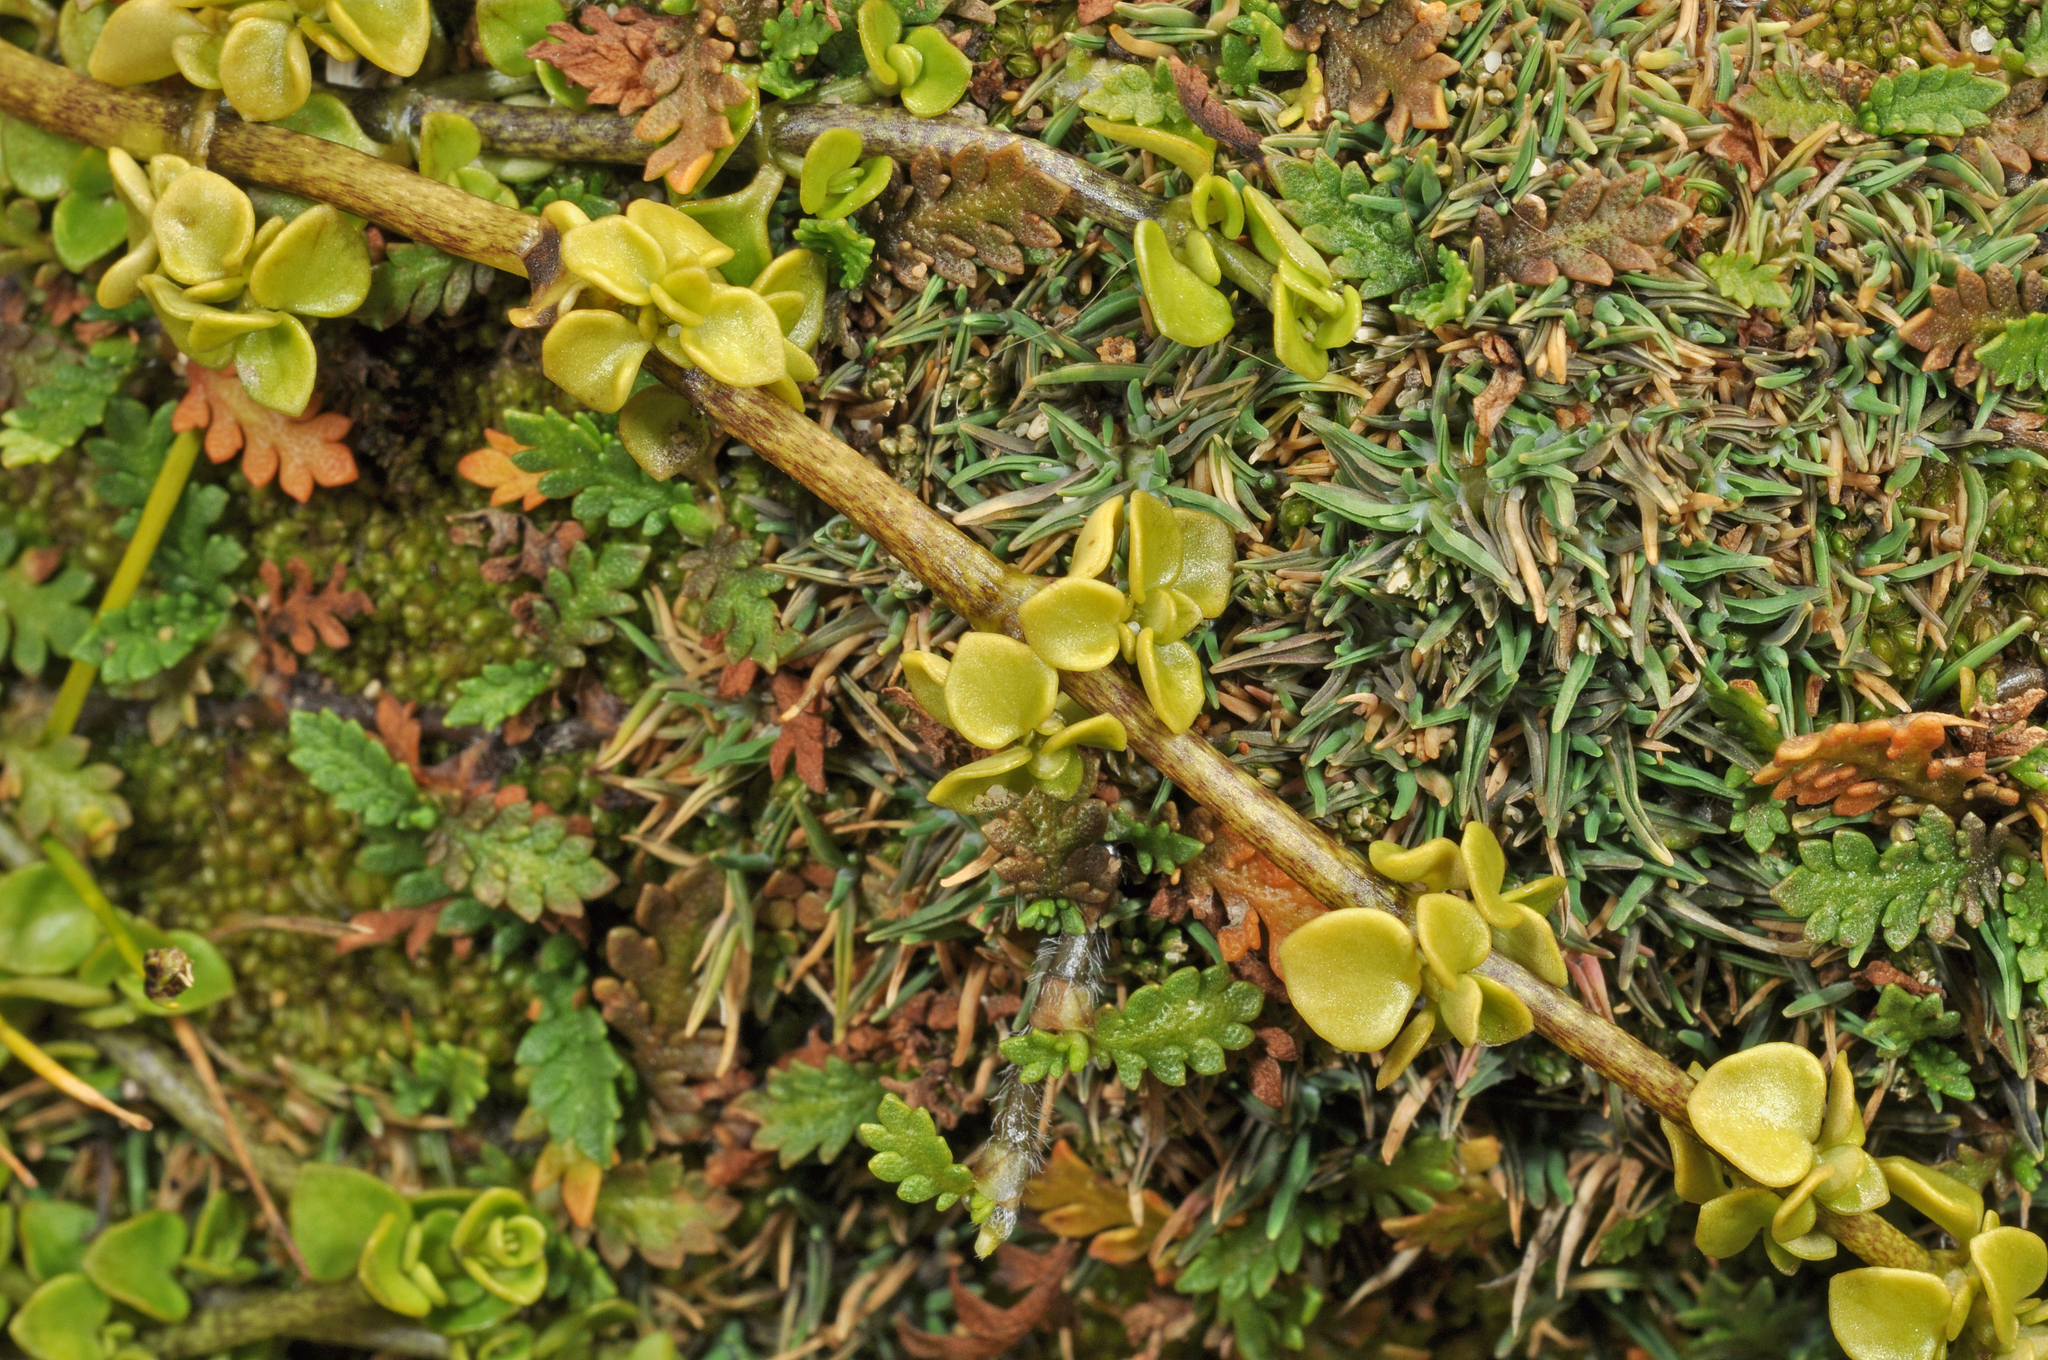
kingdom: Plantae
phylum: Tracheophyta
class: Magnoliopsida
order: Gentianales
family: Rubiaceae
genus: Nertera
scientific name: Nertera granadensis
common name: Beadplant
